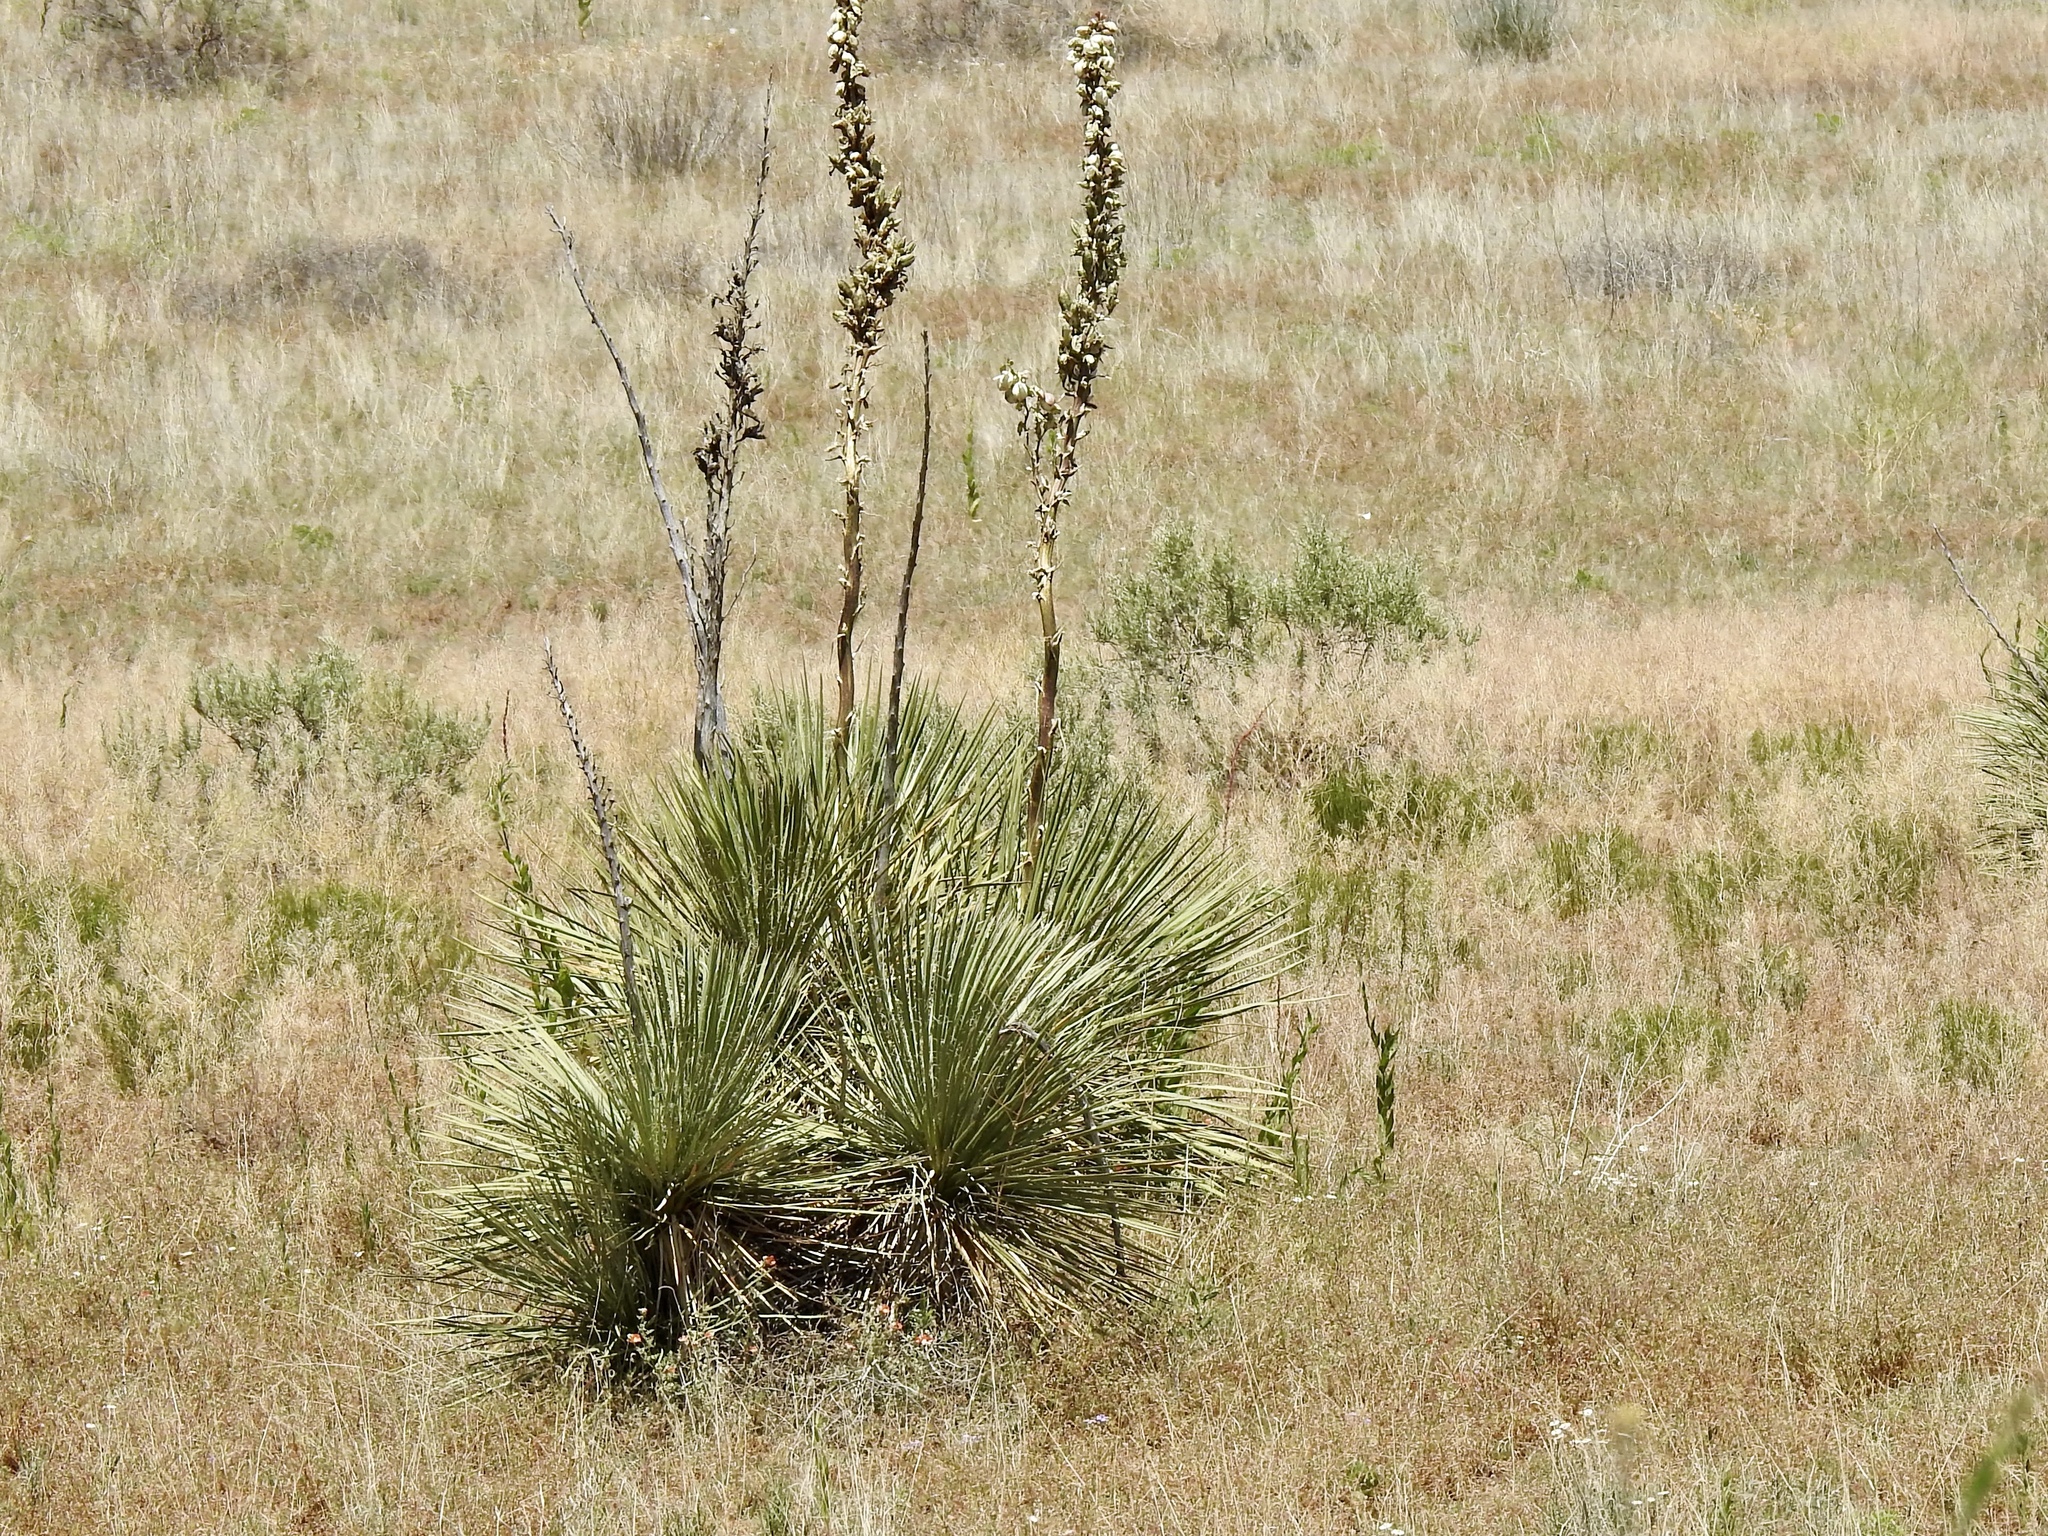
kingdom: Plantae
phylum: Tracheophyta
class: Liliopsida
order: Asparagales
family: Asparagaceae
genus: Yucca
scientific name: Yucca angustissima
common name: Narrowleaf yucca
